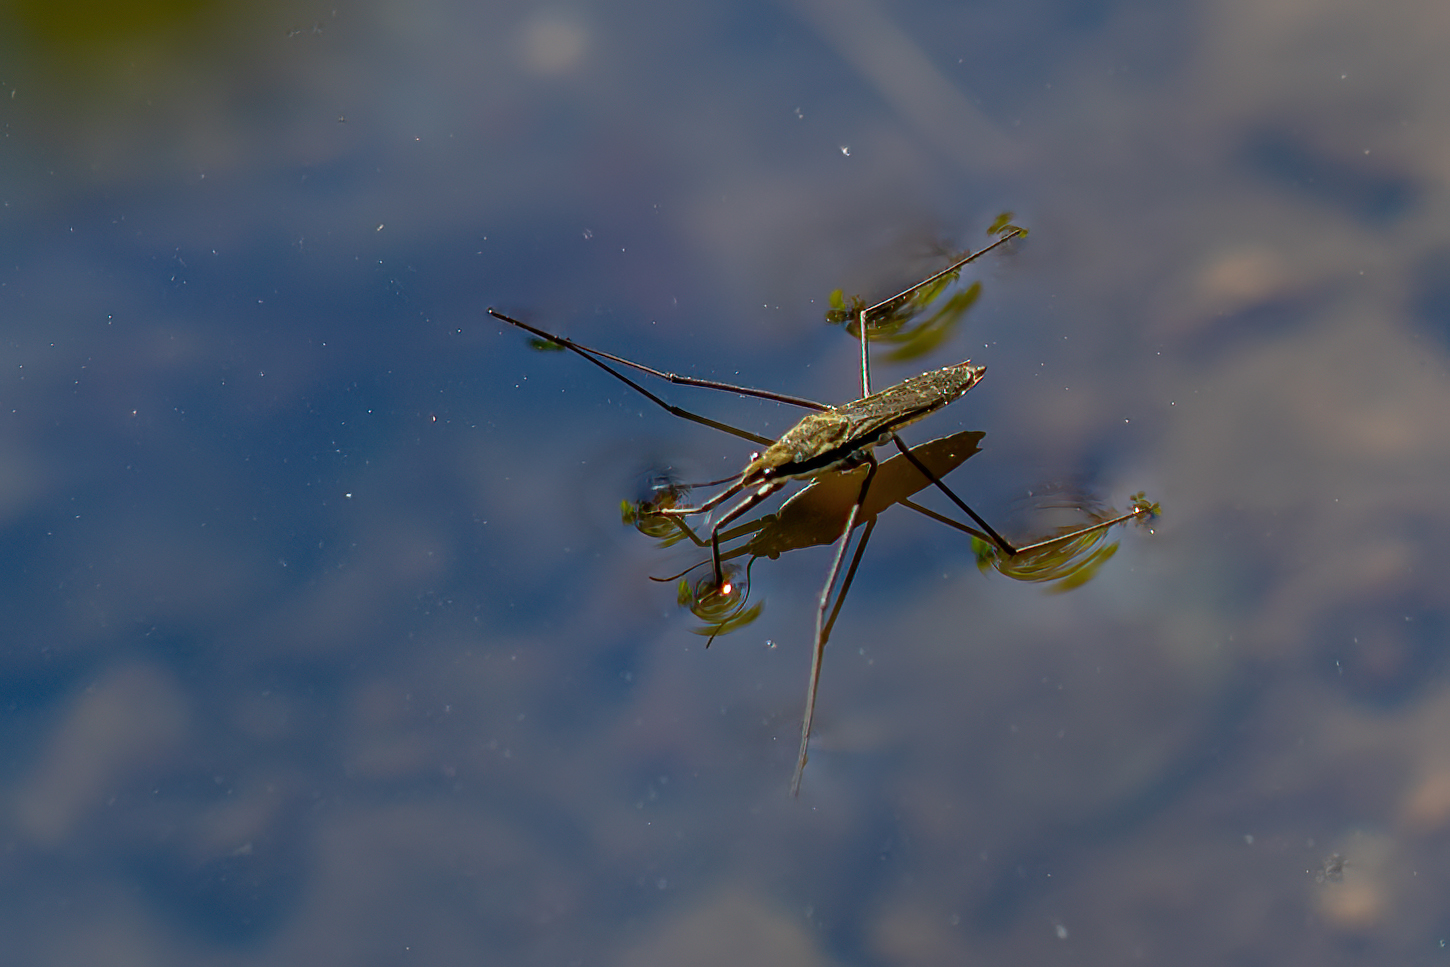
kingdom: Animalia
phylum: Arthropoda
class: Insecta
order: Hemiptera
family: Gerridae
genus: Aquarius
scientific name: Aquarius remigis
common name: Common water strider
